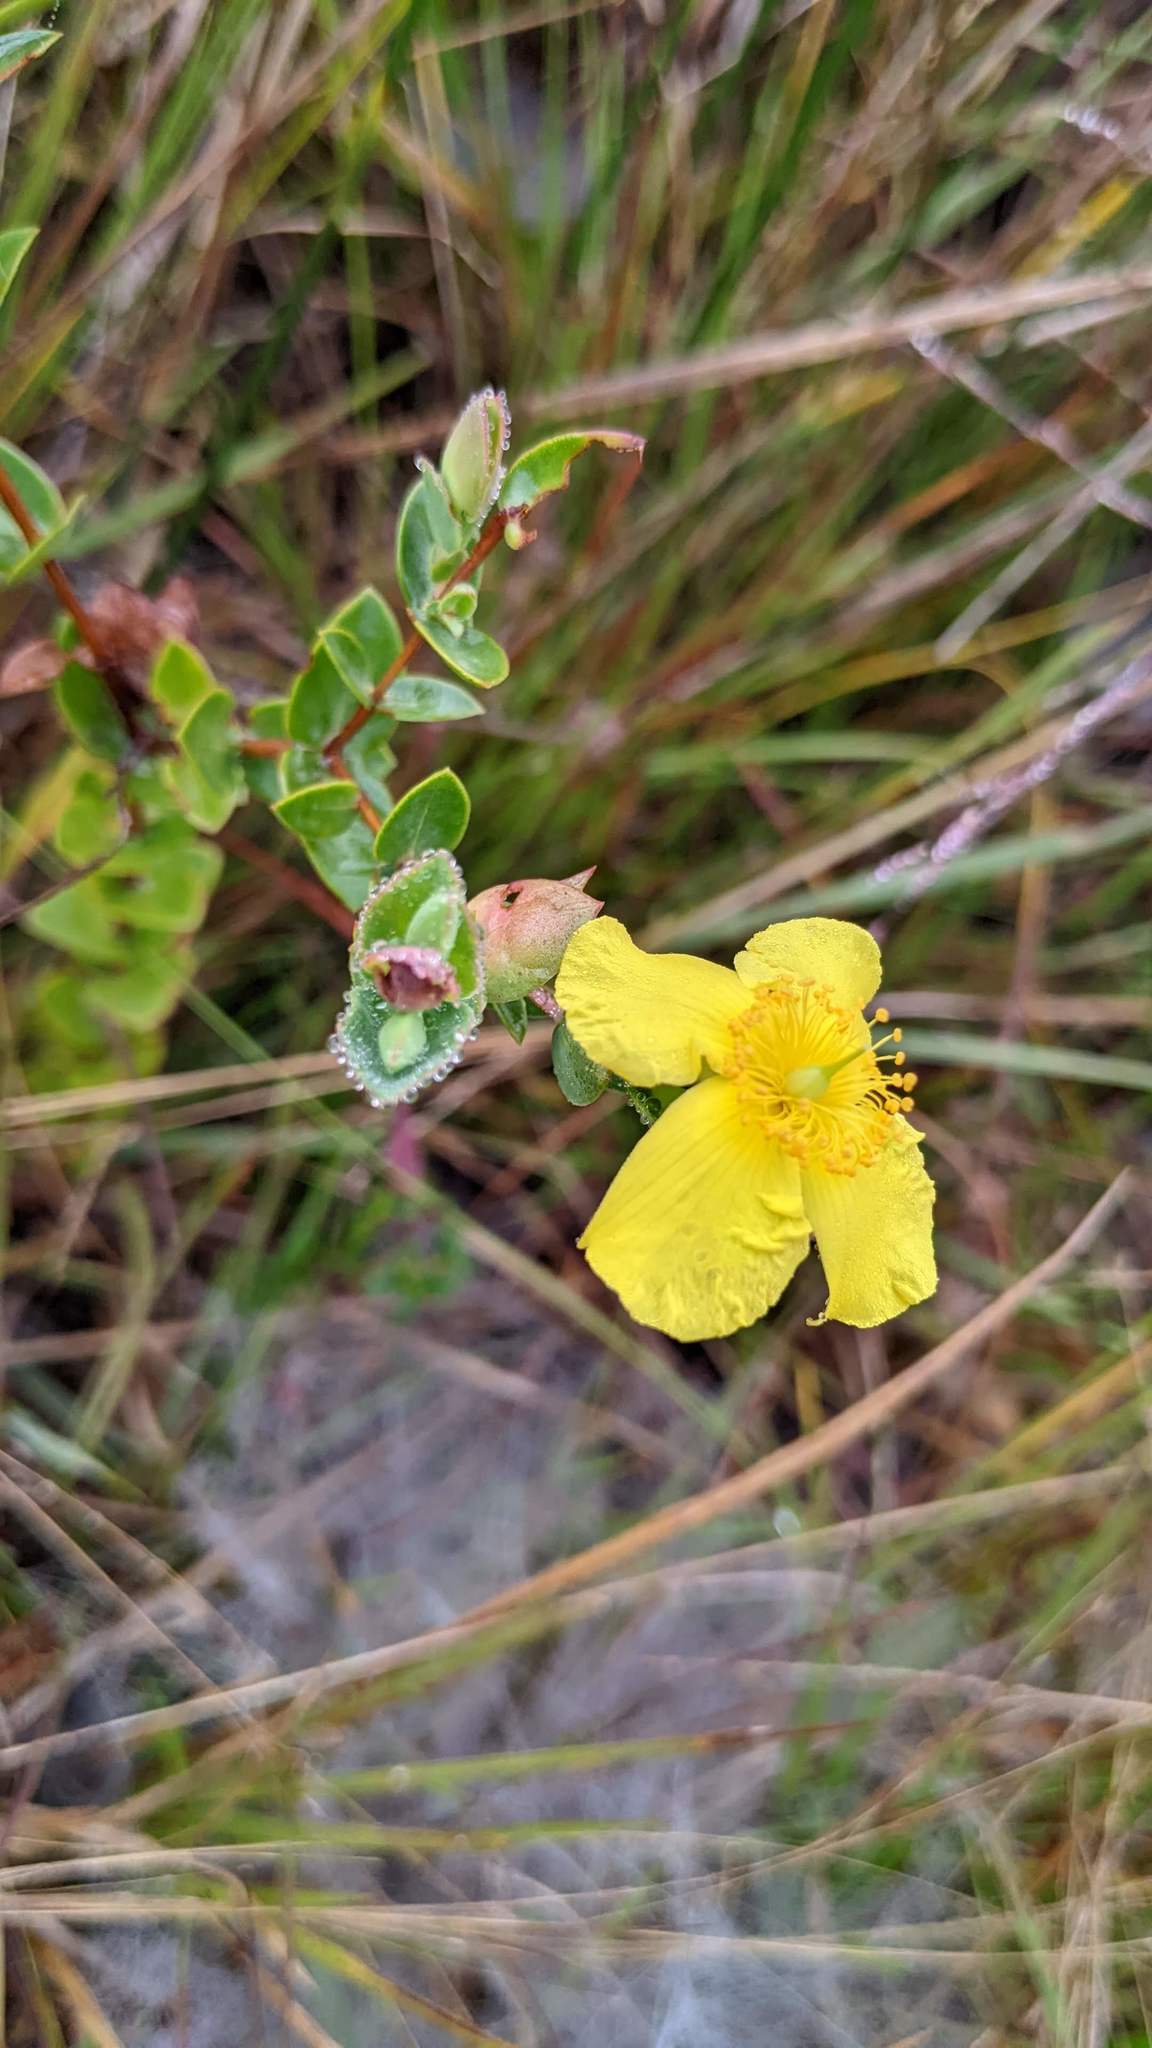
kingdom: Plantae
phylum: Tracheophyta
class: Magnoliopsida
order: Malpighiales
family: Hypericaceae
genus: Hypericum
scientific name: Hypericum tetrapetalum
